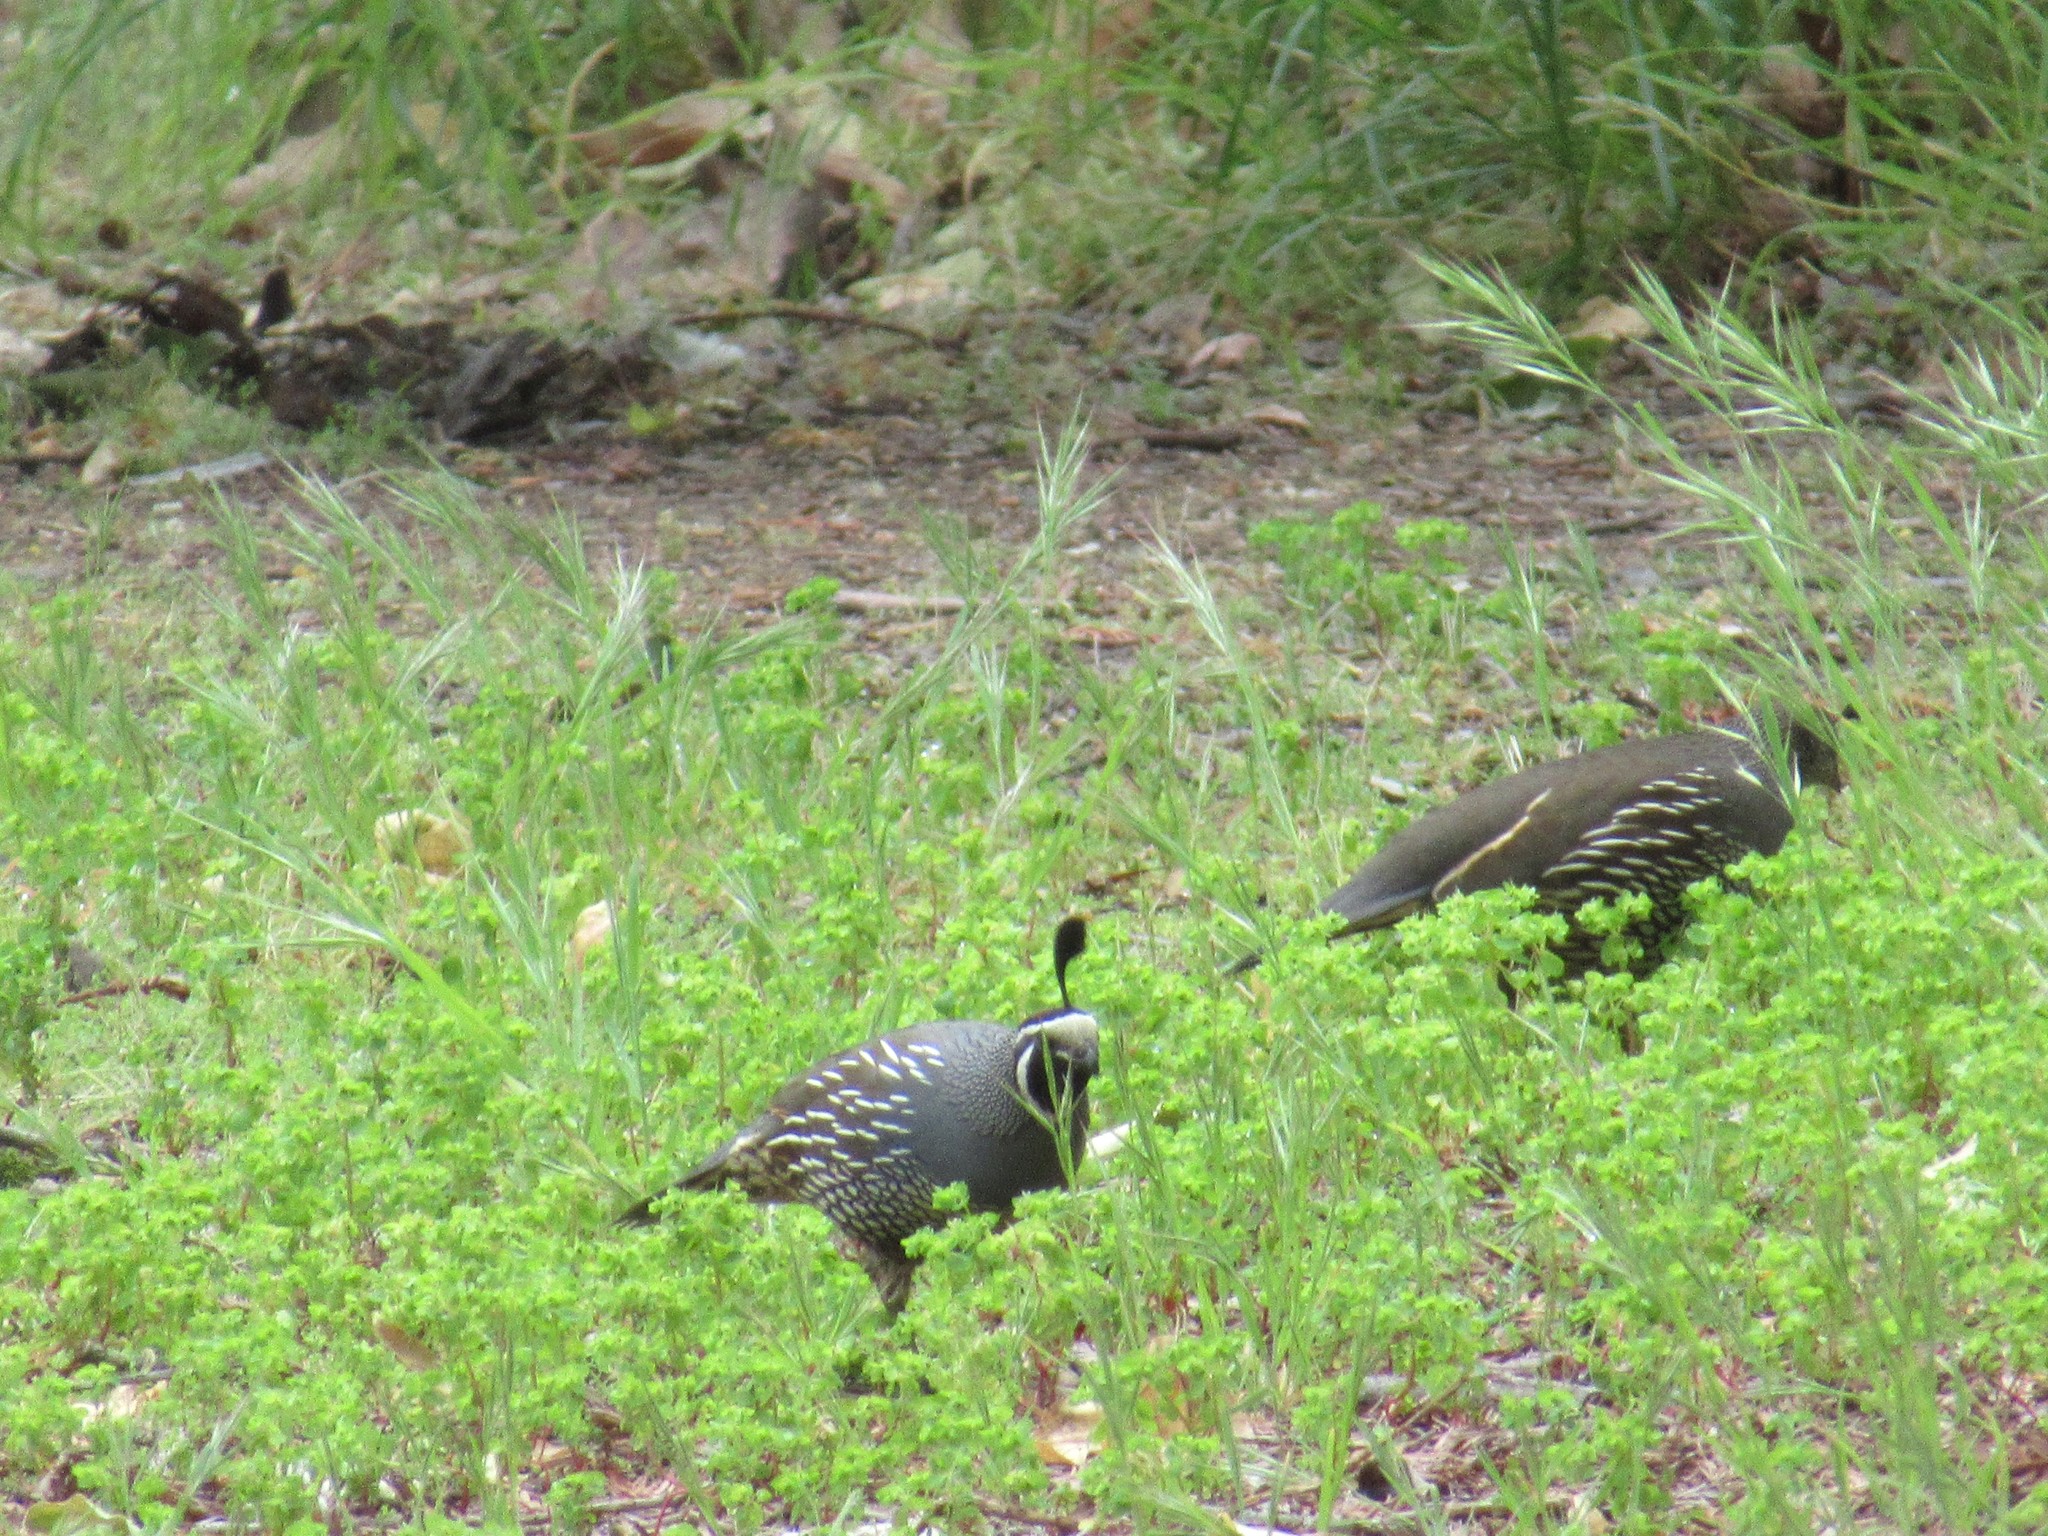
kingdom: Animalia
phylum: Chordata
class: Aves
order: Galliformes
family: Odontophoridae
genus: Callipepla
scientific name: Callipepla californica
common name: California quail
